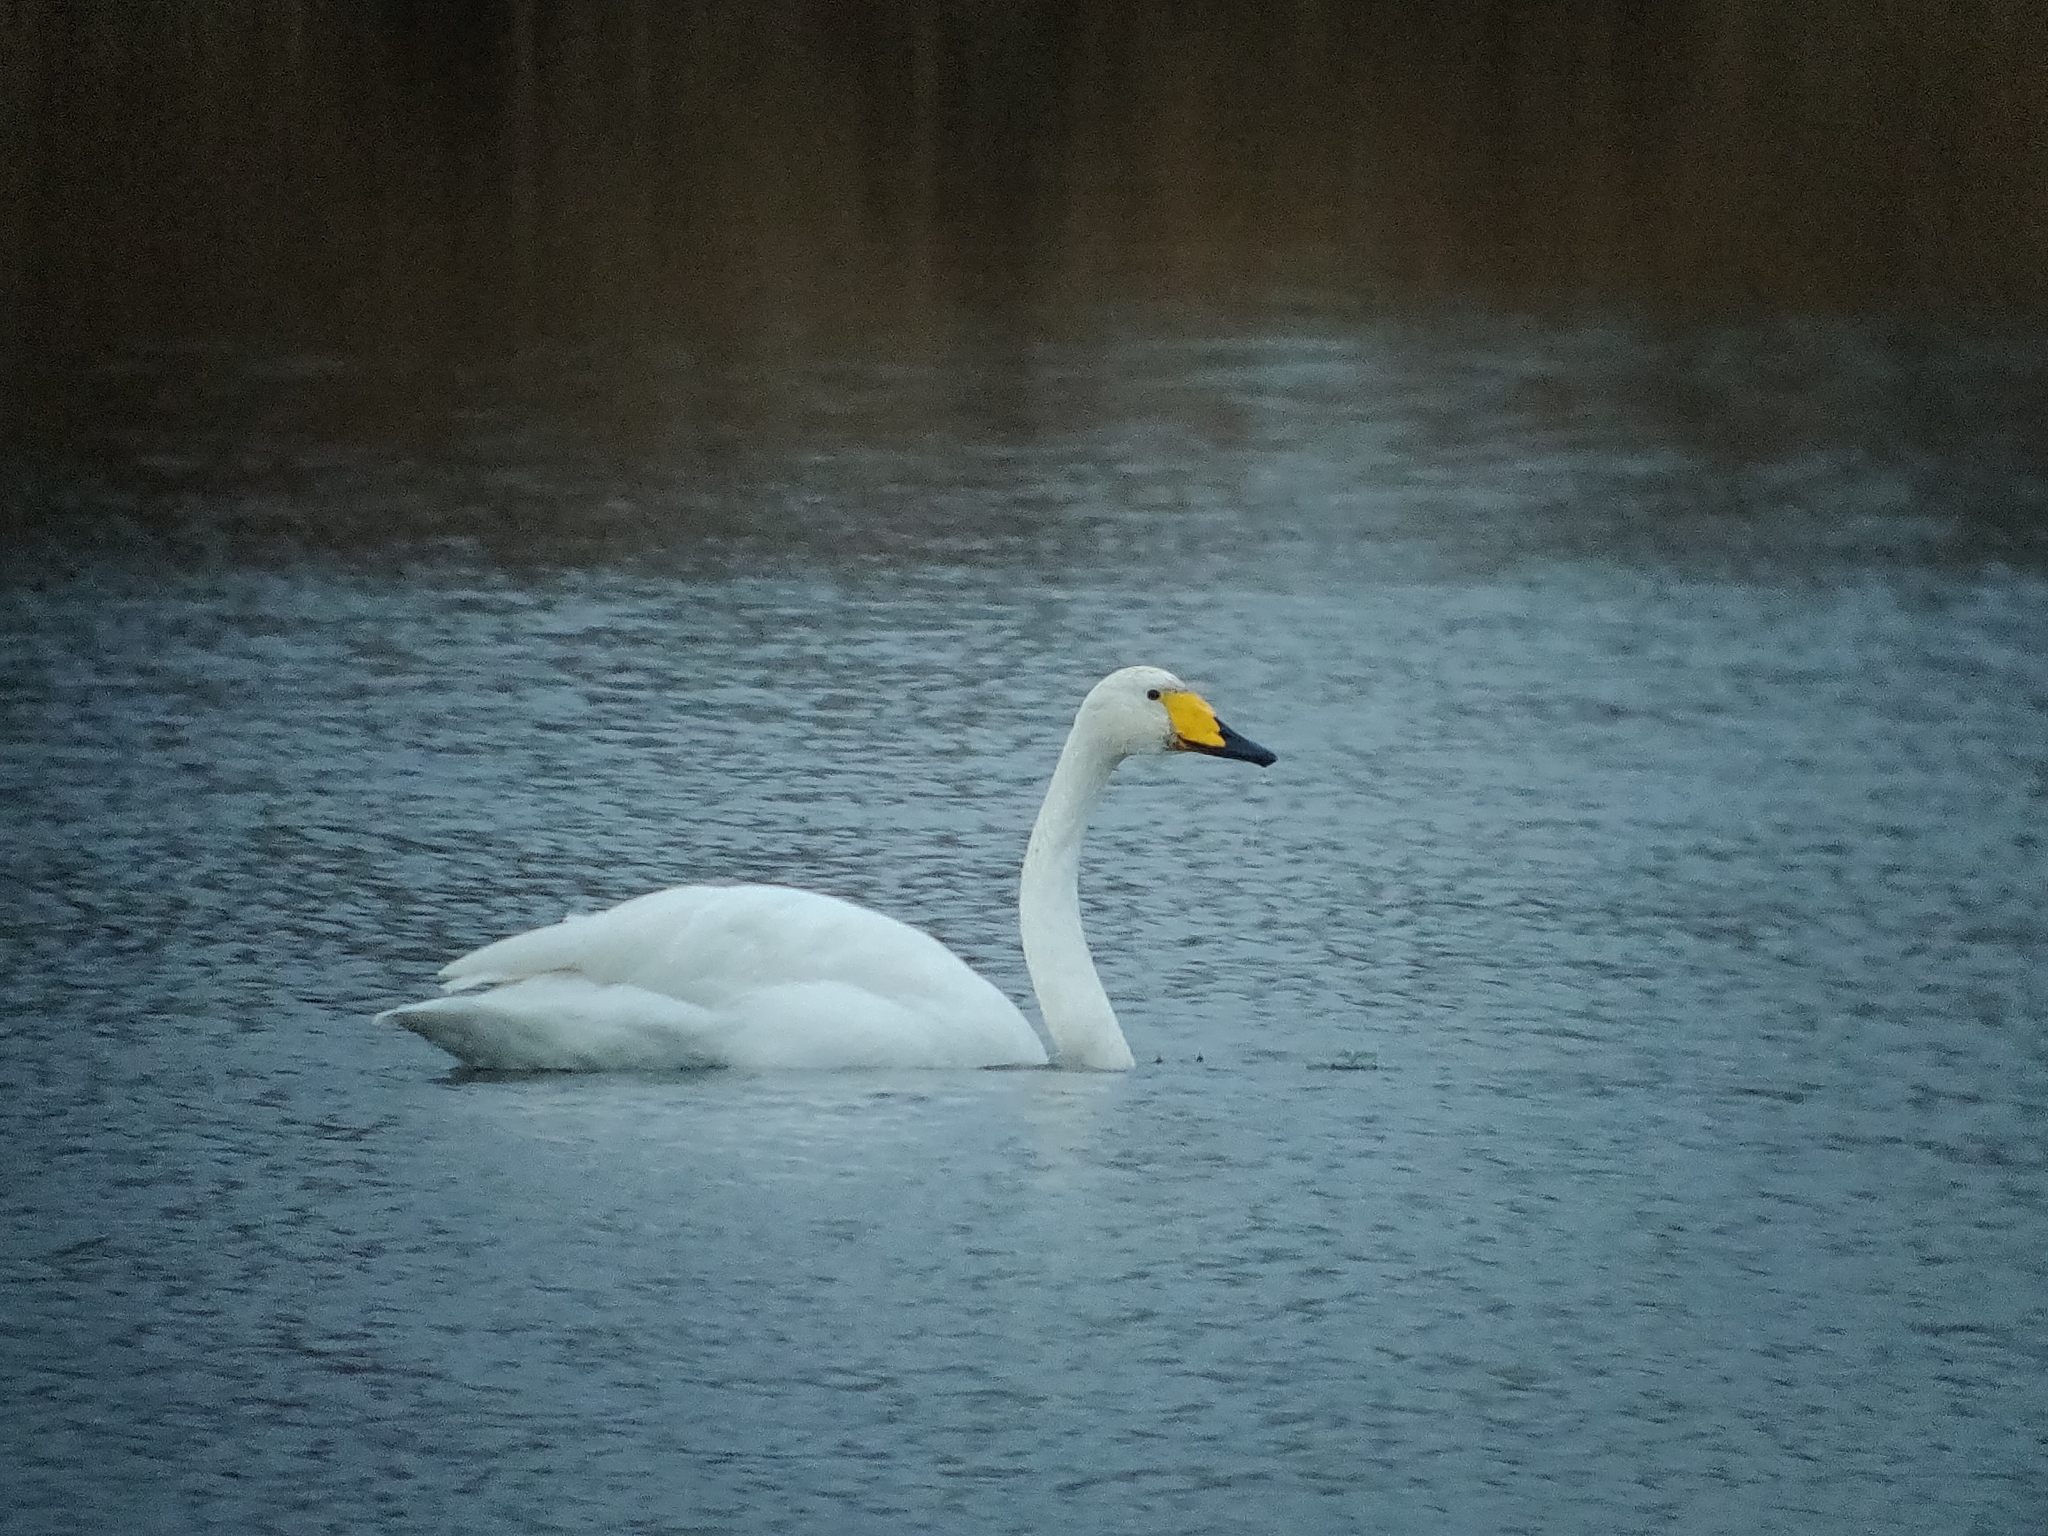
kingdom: Animalia
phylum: Chordata
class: Aves
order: Anseriformes
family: Anatidae
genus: Cygnus
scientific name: Cygnus cygnus
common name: Whooper swan
